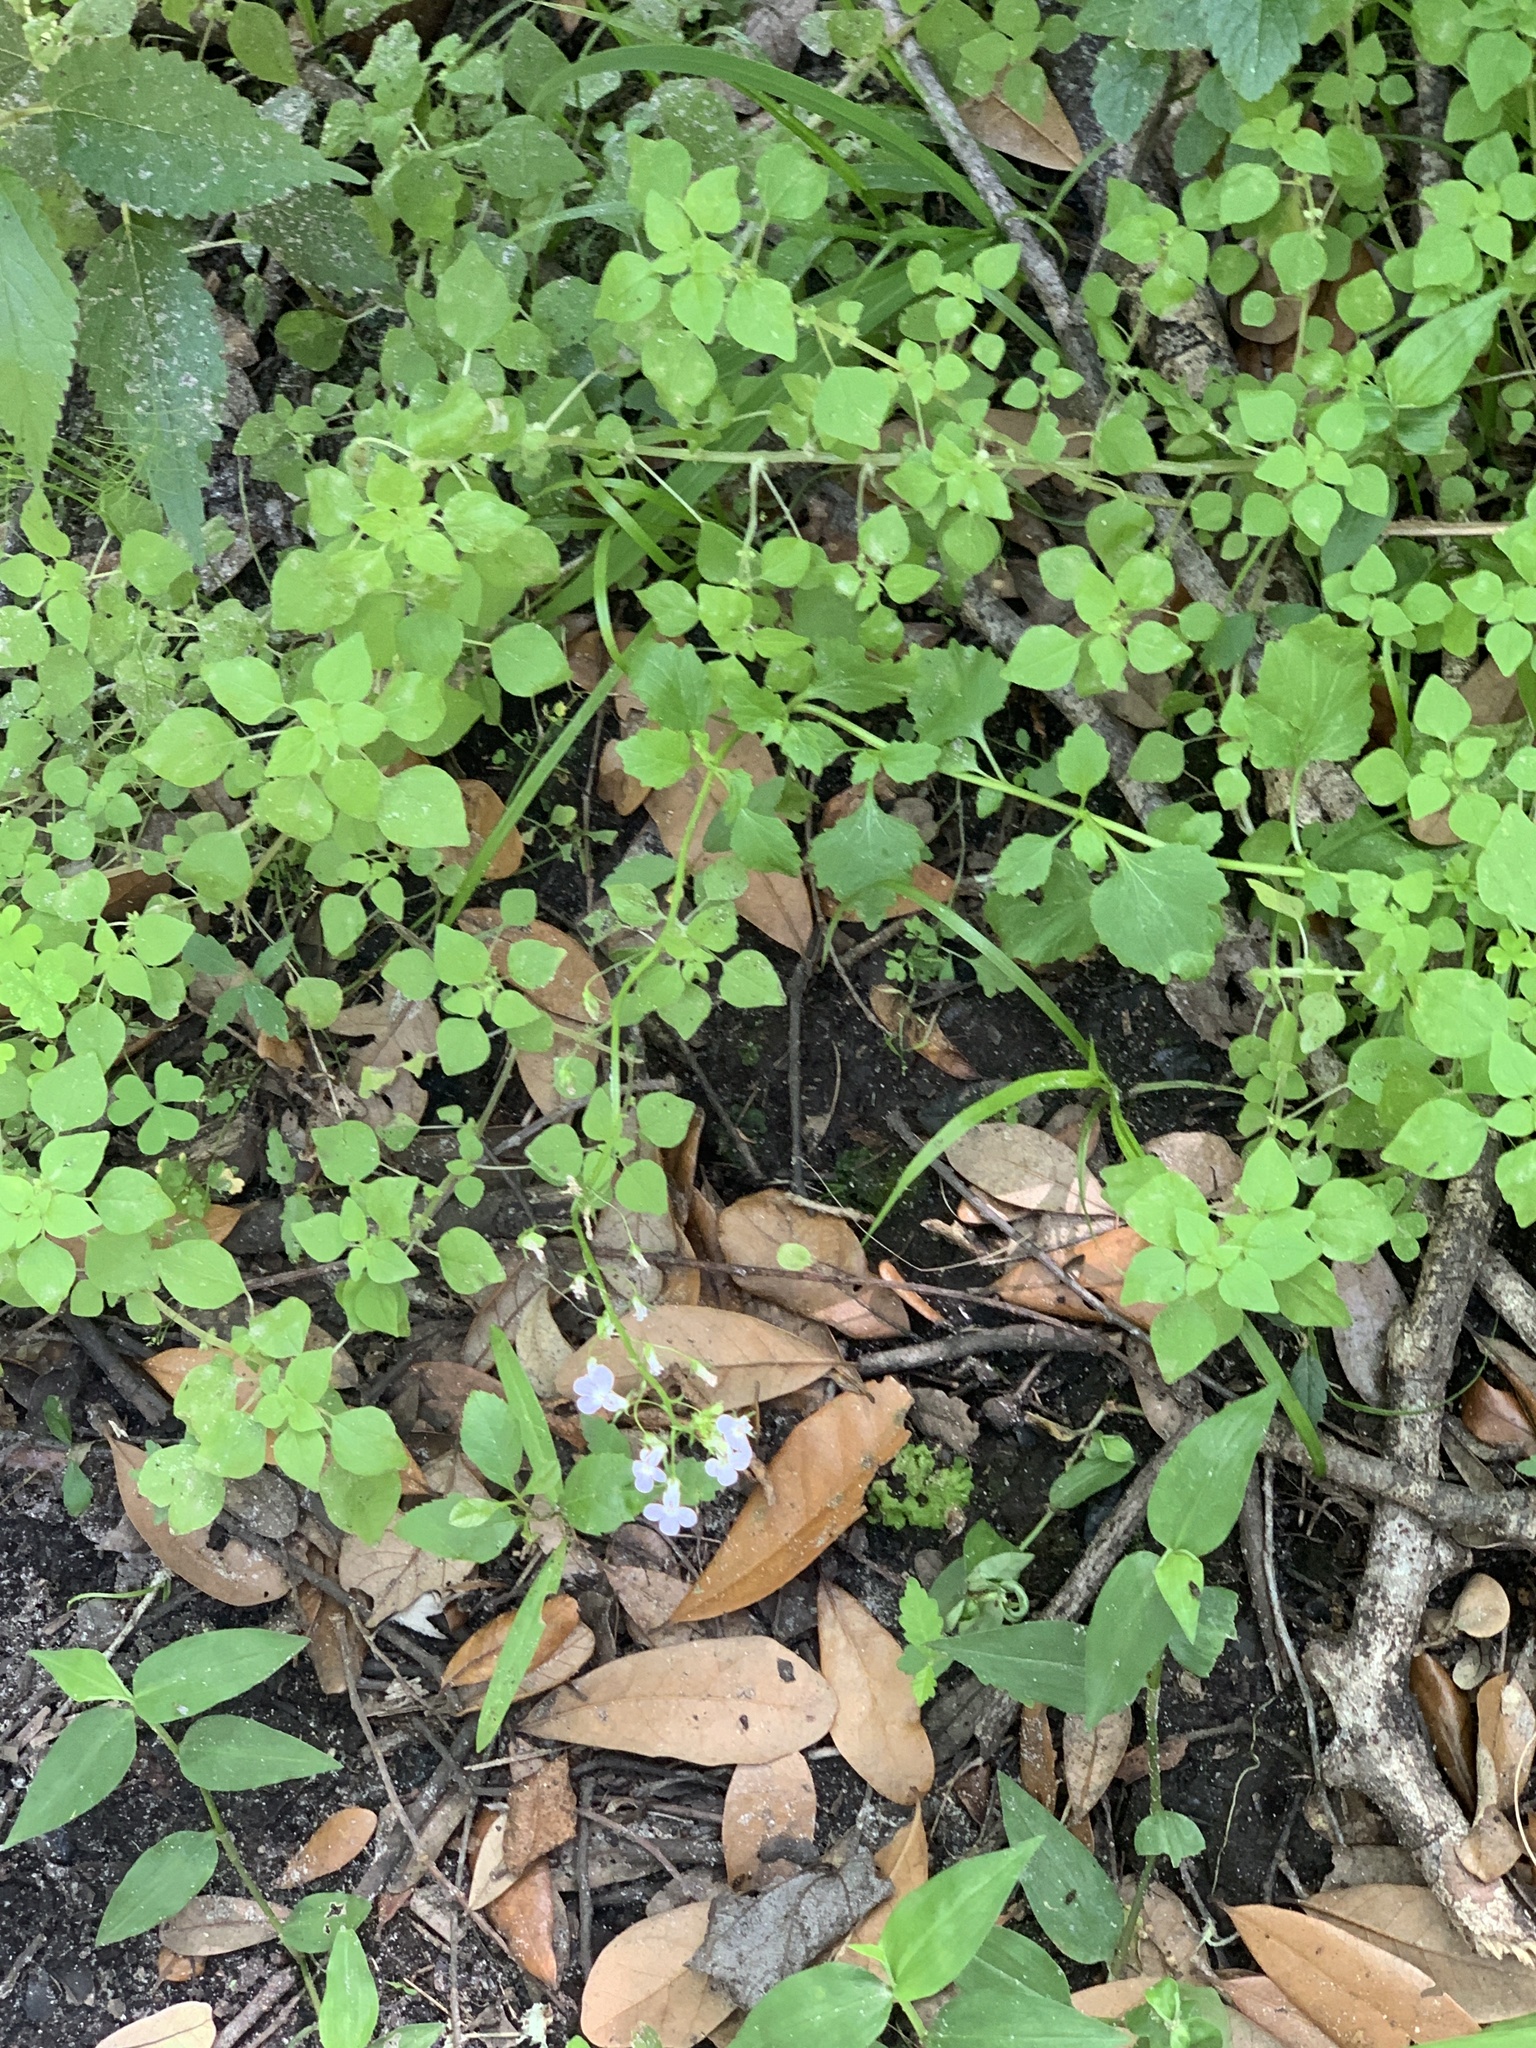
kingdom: Plantae
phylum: Tracheophyta
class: Magnoliopsida
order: Asterales
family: Campanulaceae
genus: Lobelia
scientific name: Lobelia homophylla
